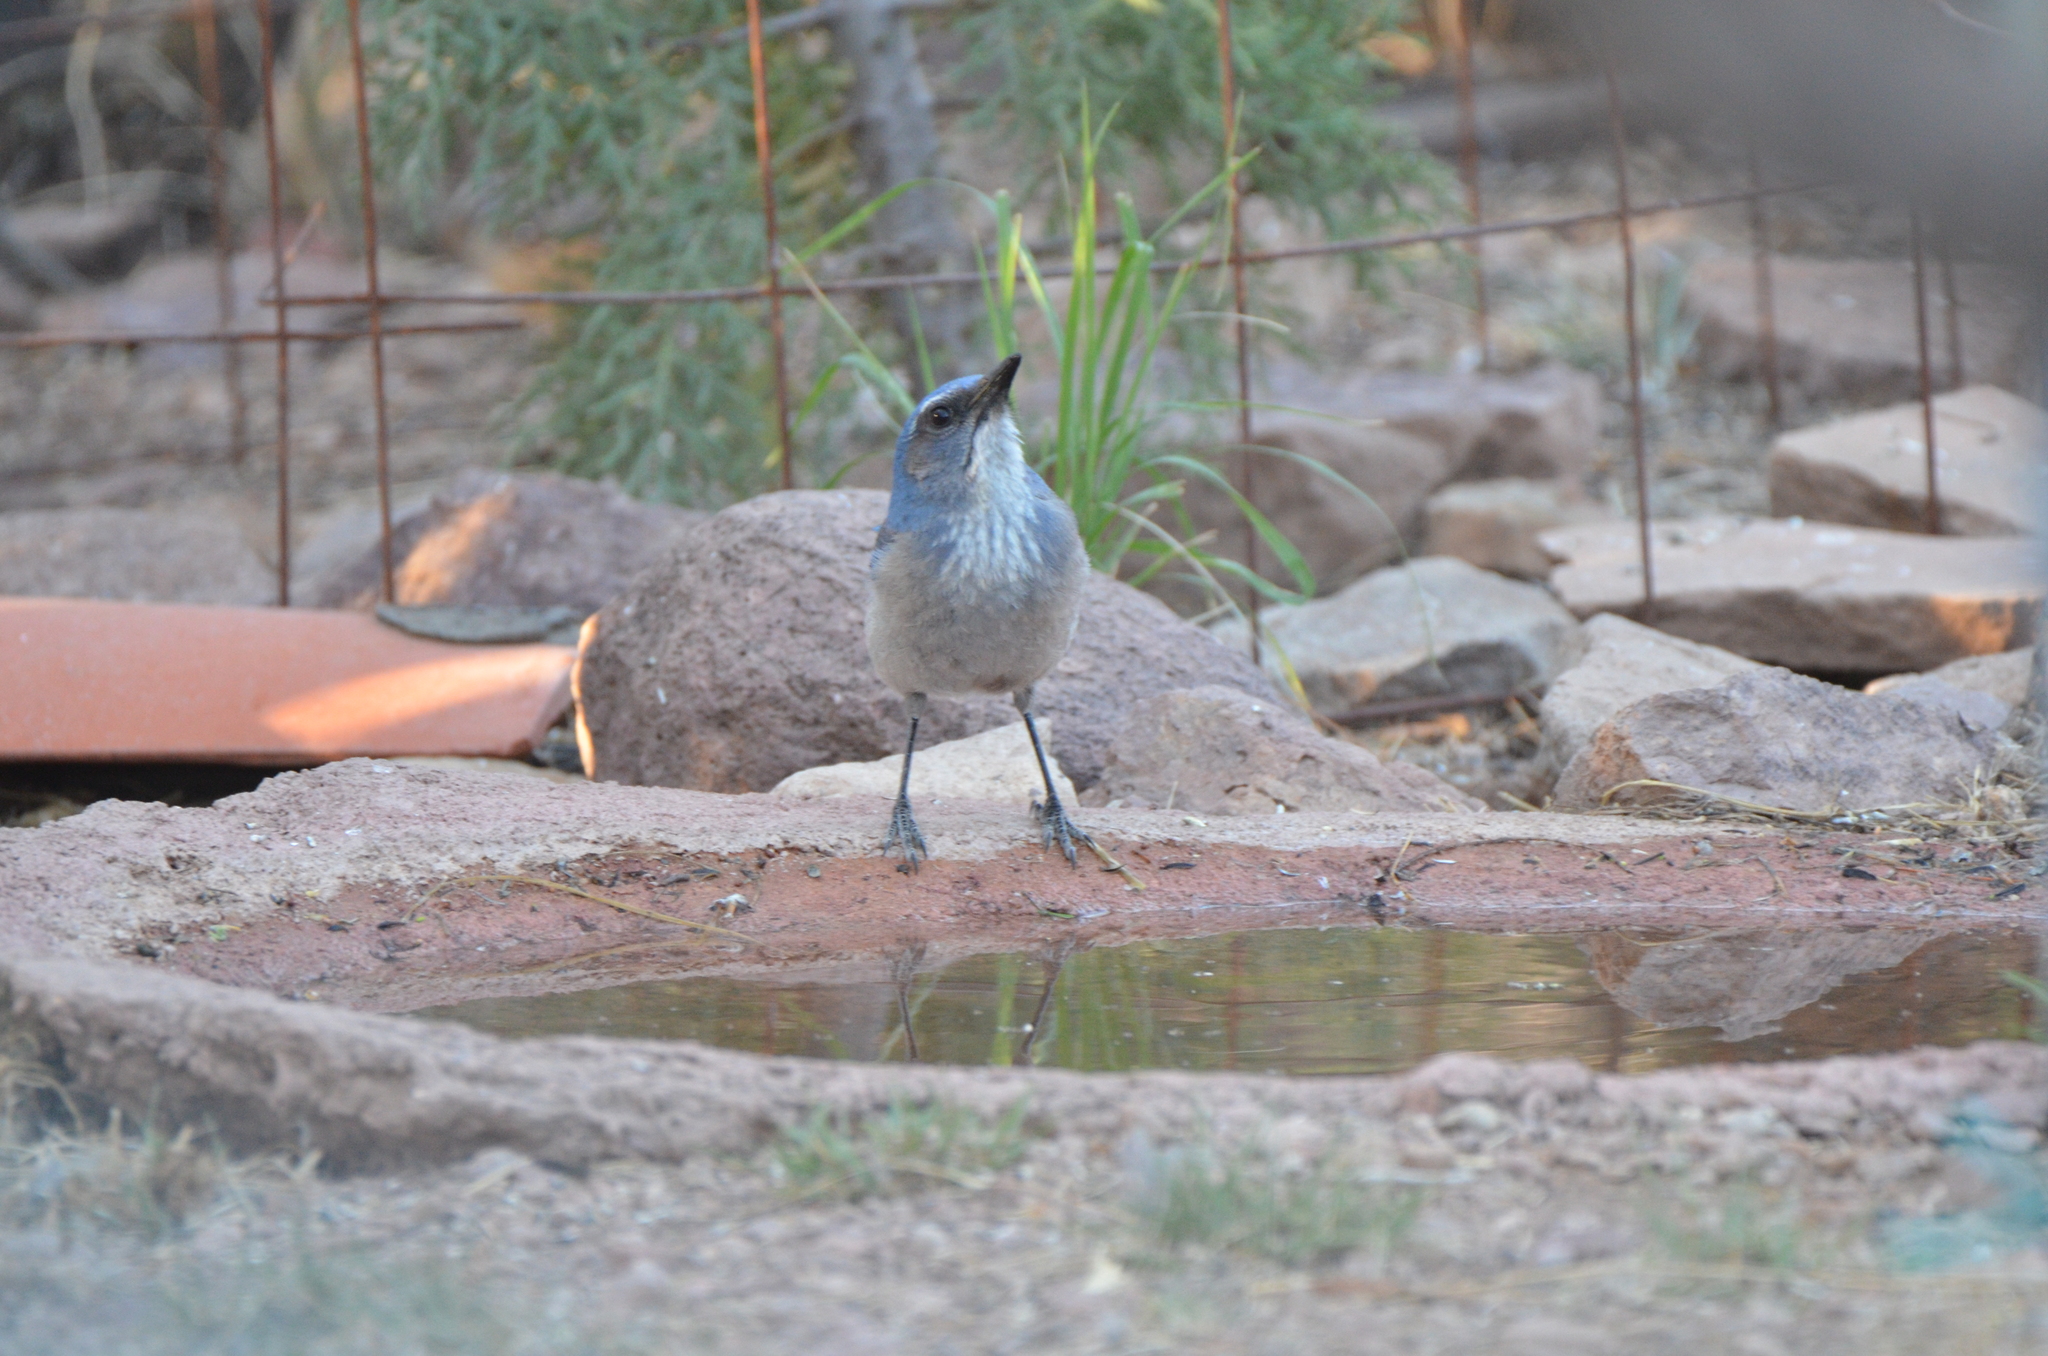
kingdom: Animalia
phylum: Chordata
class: Aves
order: Passeriformes
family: Corvidae
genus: Aphelocoma
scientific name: Aphelocoma woodhouseii
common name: Woodhouse's scrub-jay
